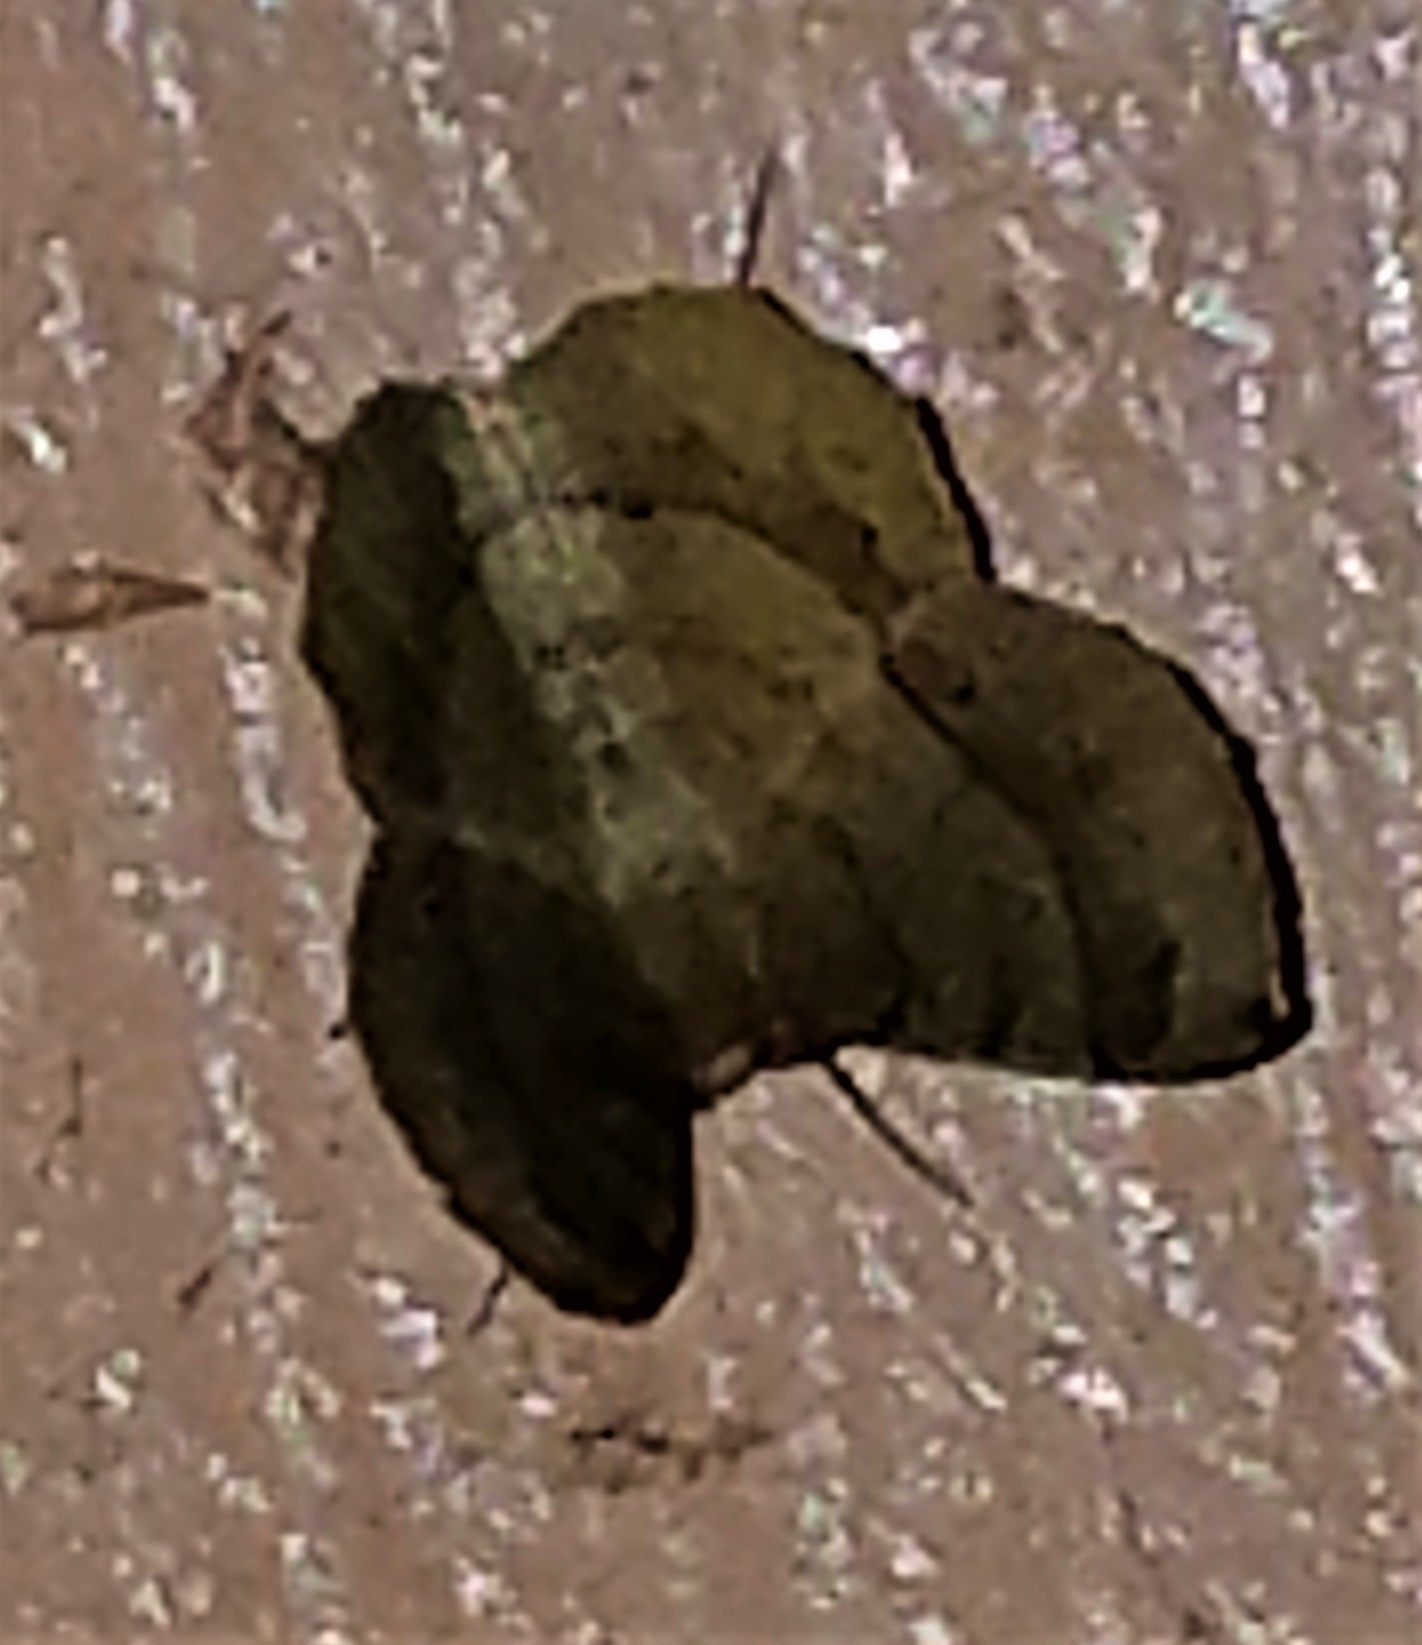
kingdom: Animalia
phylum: Arthropoda
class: Insecta
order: Lepidoptera
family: Geometridae
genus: Erastria
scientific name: Erastria decrepitaria
